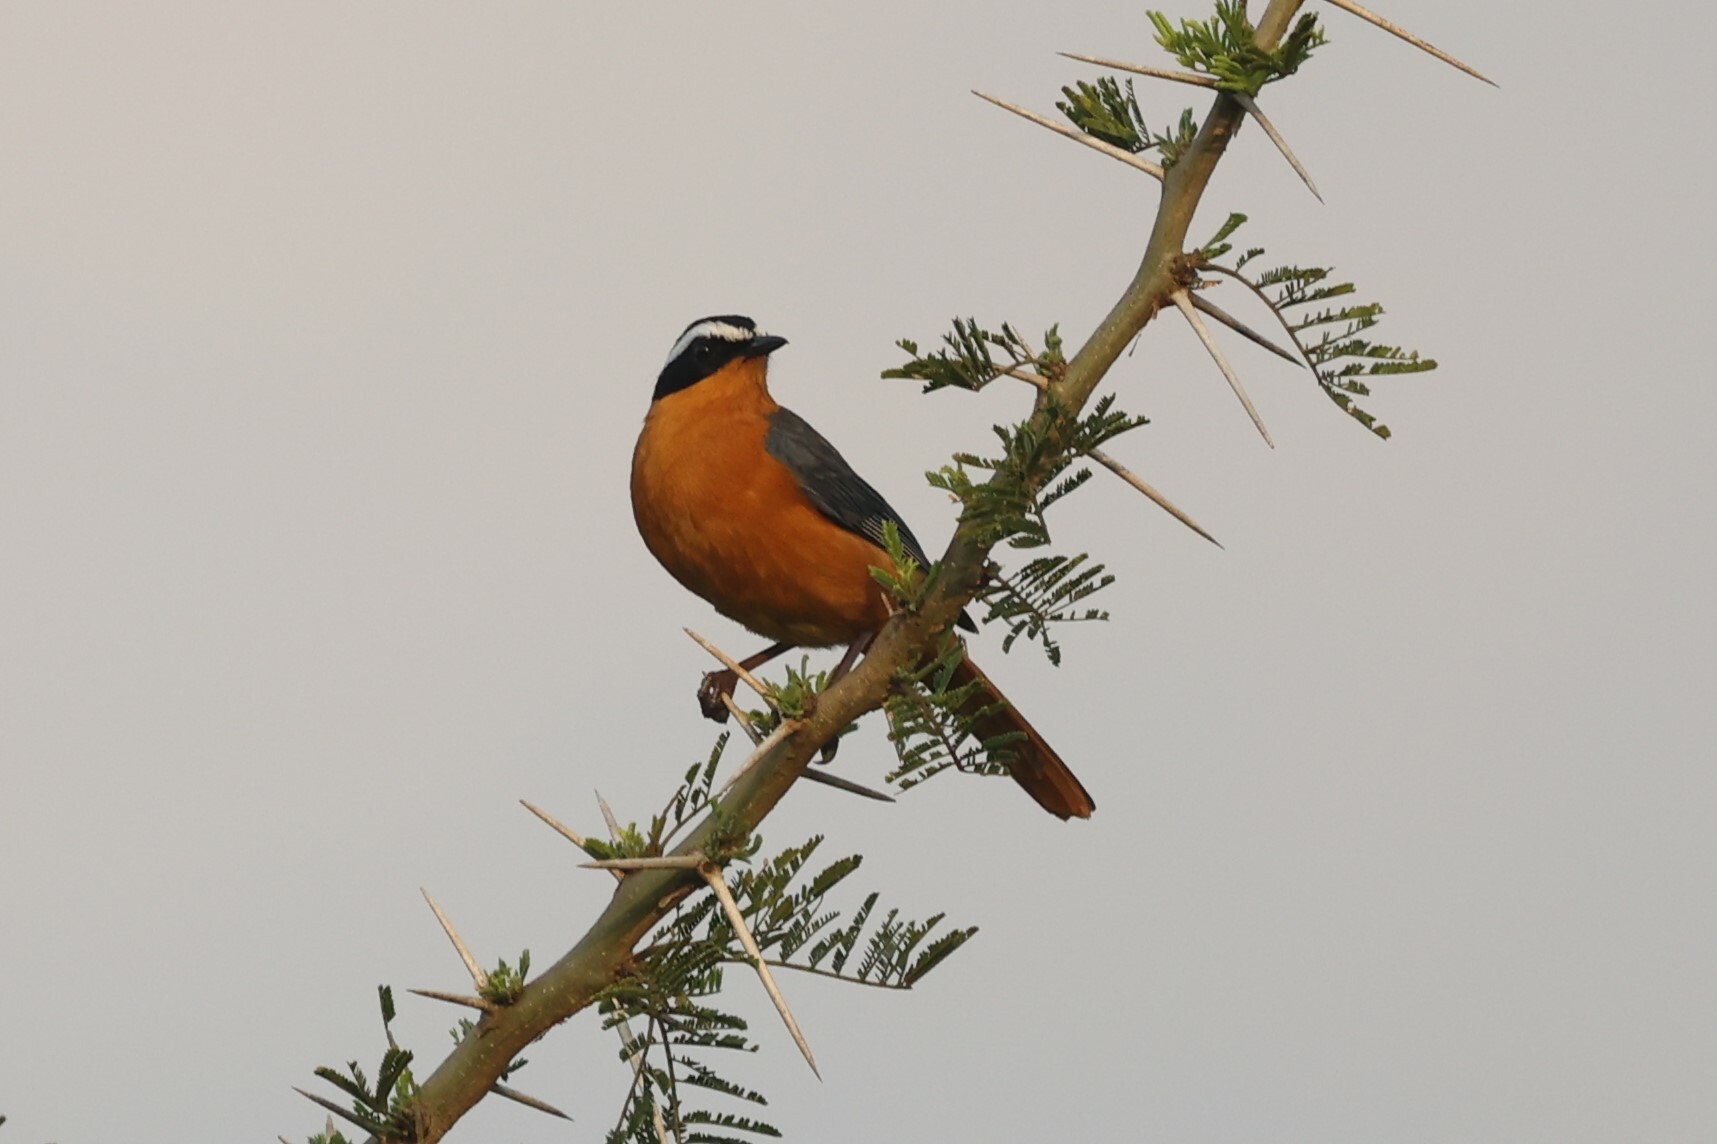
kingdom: Animalia
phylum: Chordata
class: Aves
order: Passeriformes
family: Muscicapidae
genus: Cossypha
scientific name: Cossypha heuglini
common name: White-browed robin-chat
